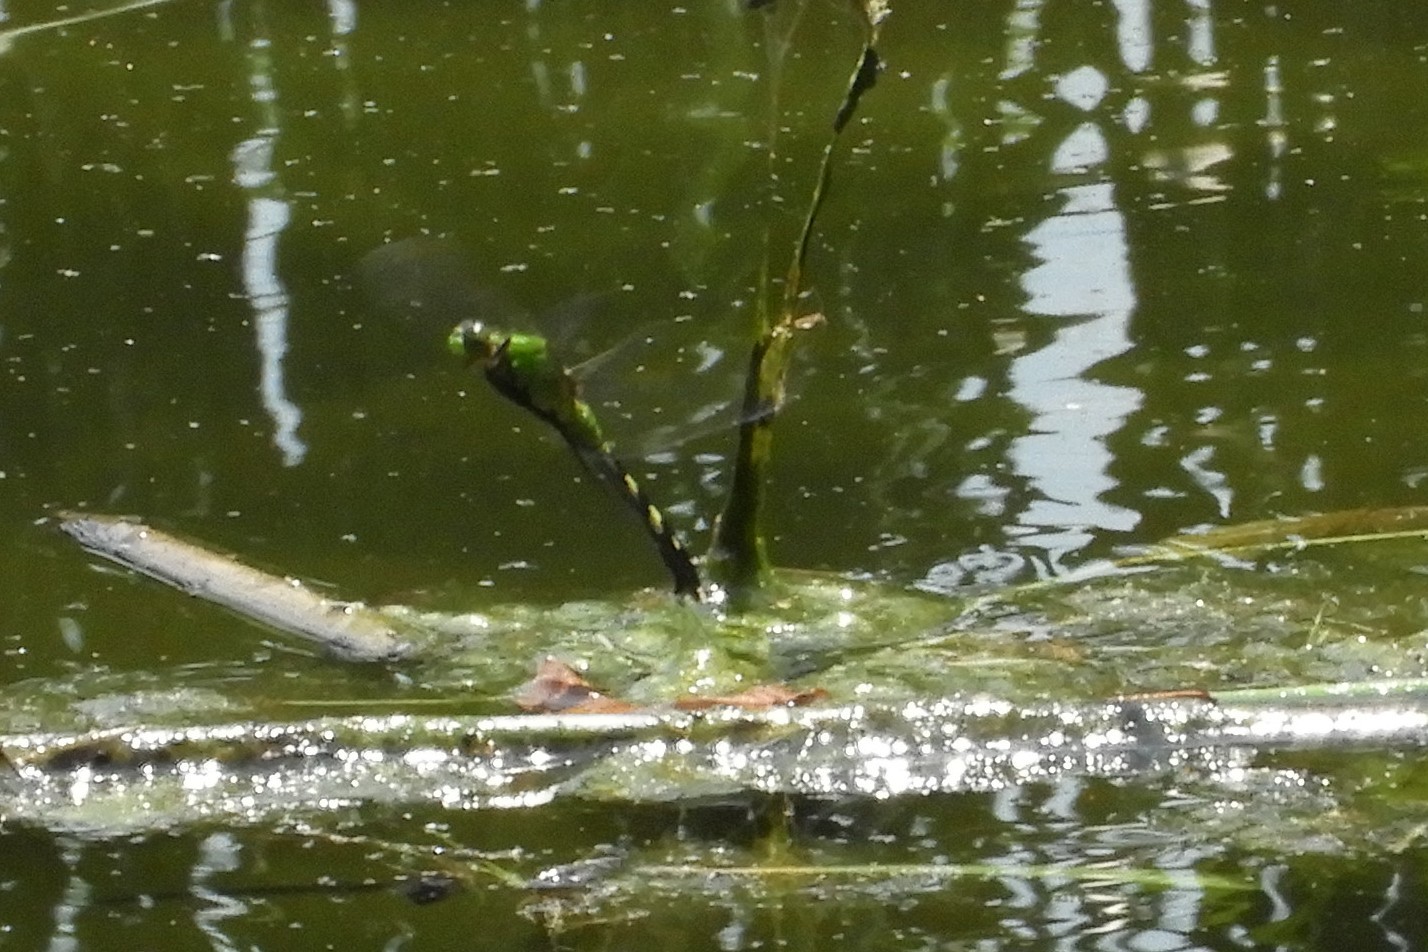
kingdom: Animalia
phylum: Arthropoda
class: Insecta
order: Odonata
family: Libellulidae
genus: Erythemis
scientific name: Erythemis simplicicollis
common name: Eastern pondhawk
